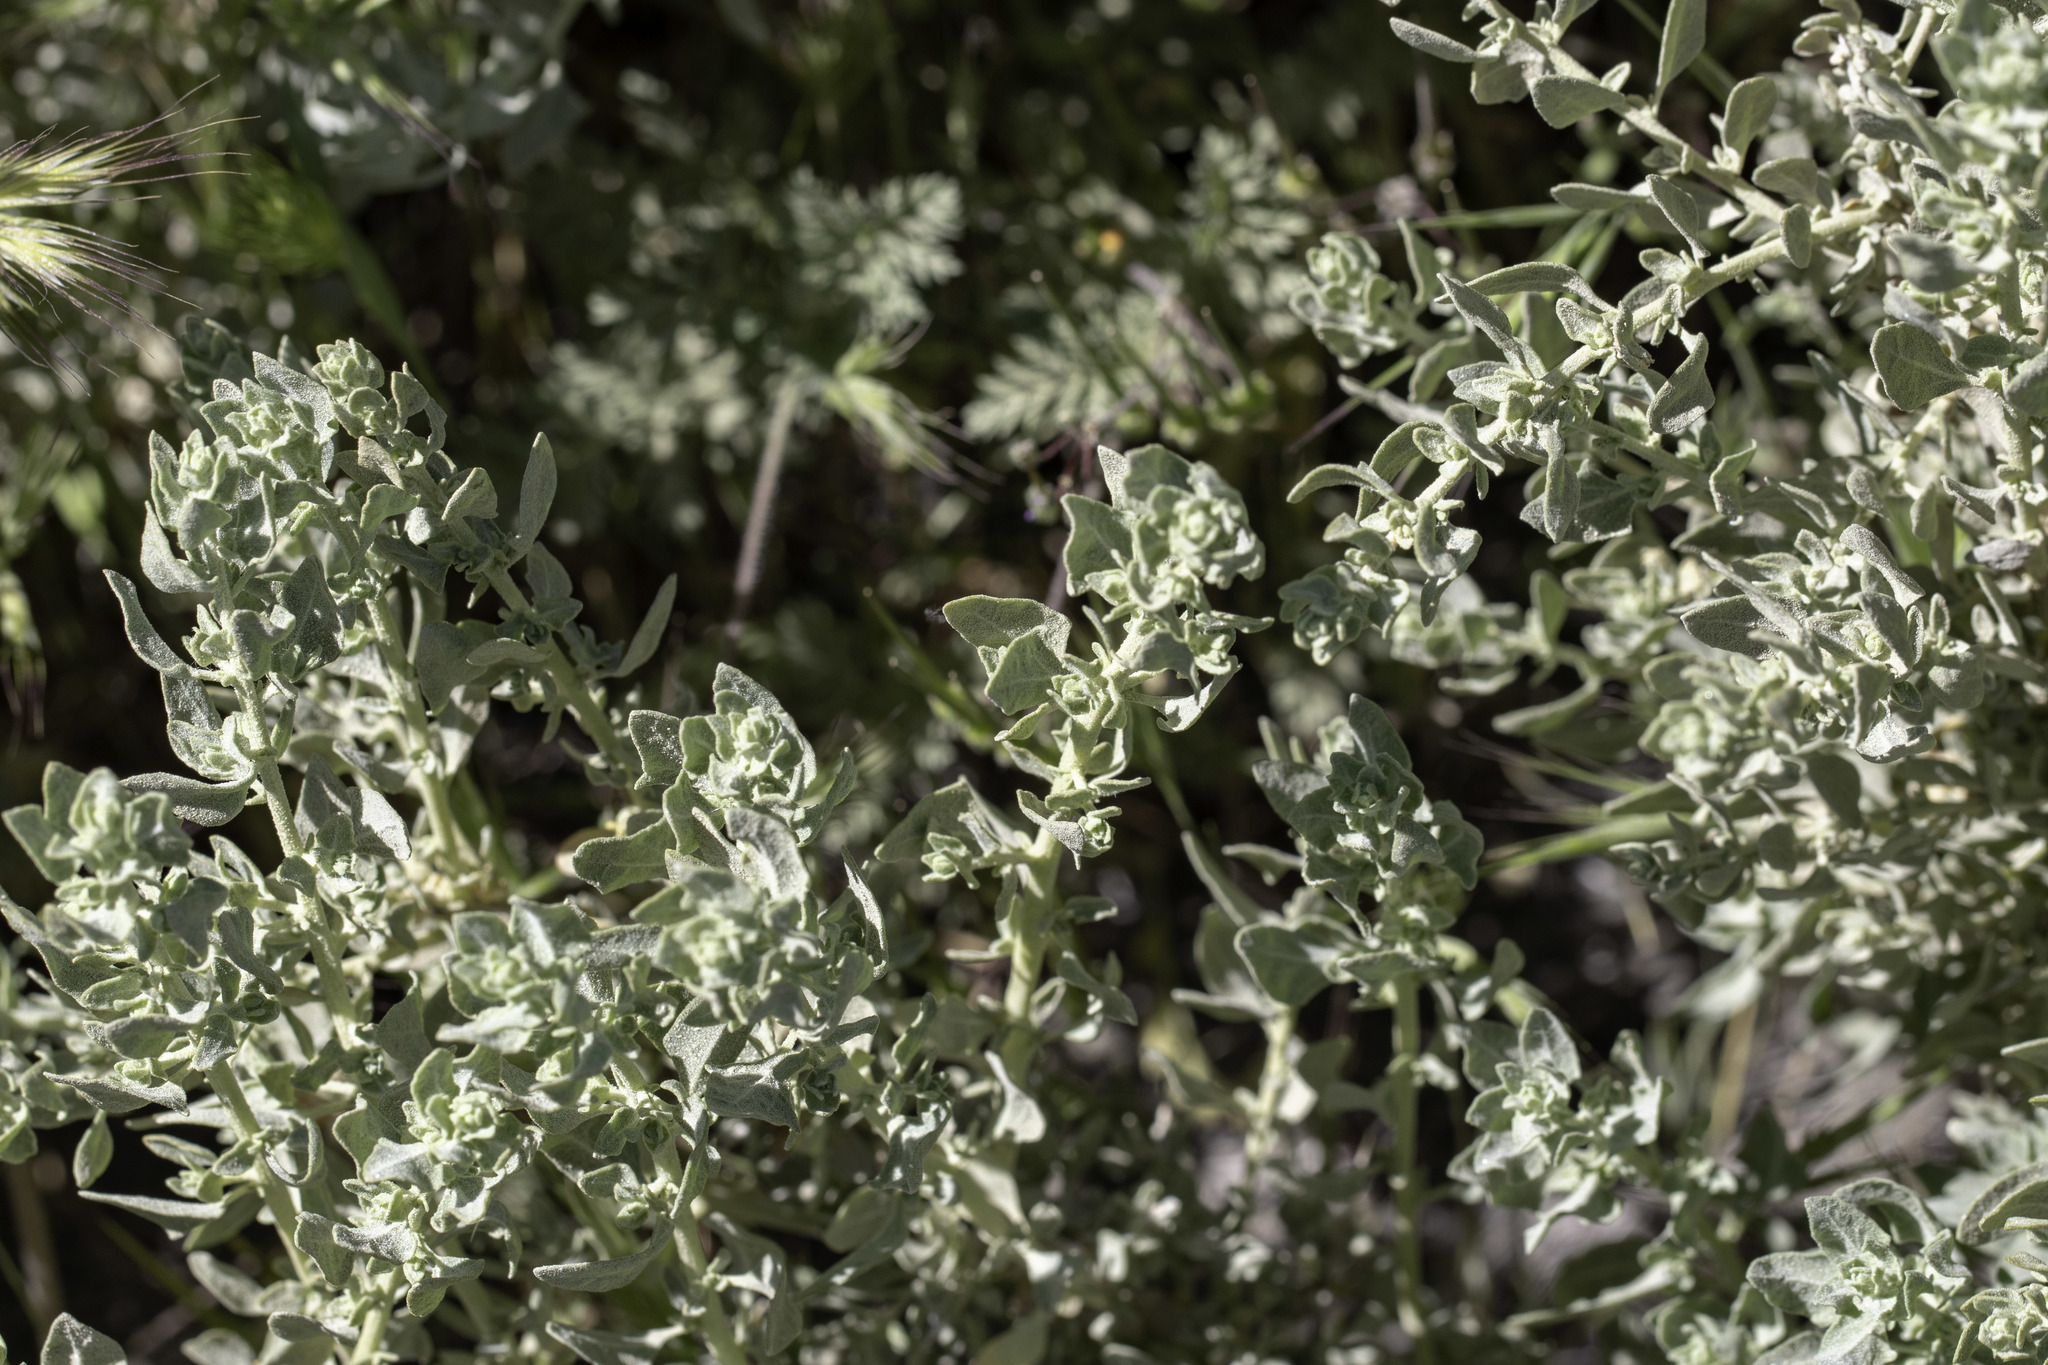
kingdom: Plantae
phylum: Tracheophyta
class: Magnoliopsida
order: Caryophyllales
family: Amaranthaceae
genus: Atriplex
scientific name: Atriplex spinifera
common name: Spiny saltbush
